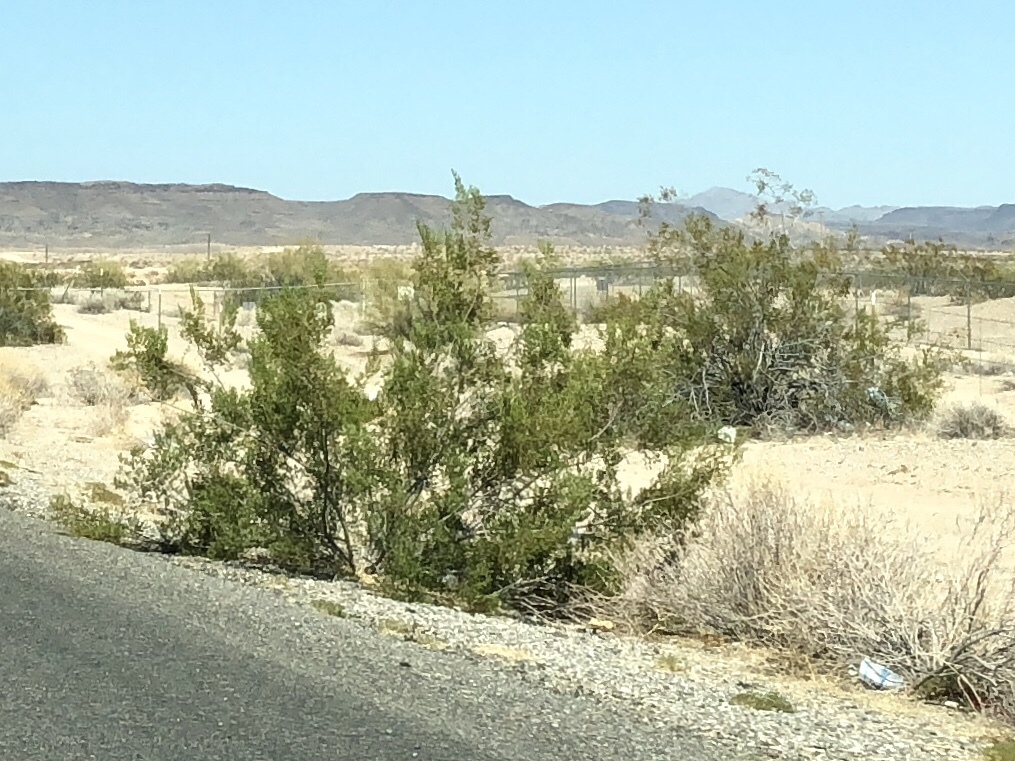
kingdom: Plantae
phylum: Tracheophyta
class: Magnoliopsida
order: Zygophyllales
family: Zygophyllaceae
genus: Larrea
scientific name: Larrea tridentata
